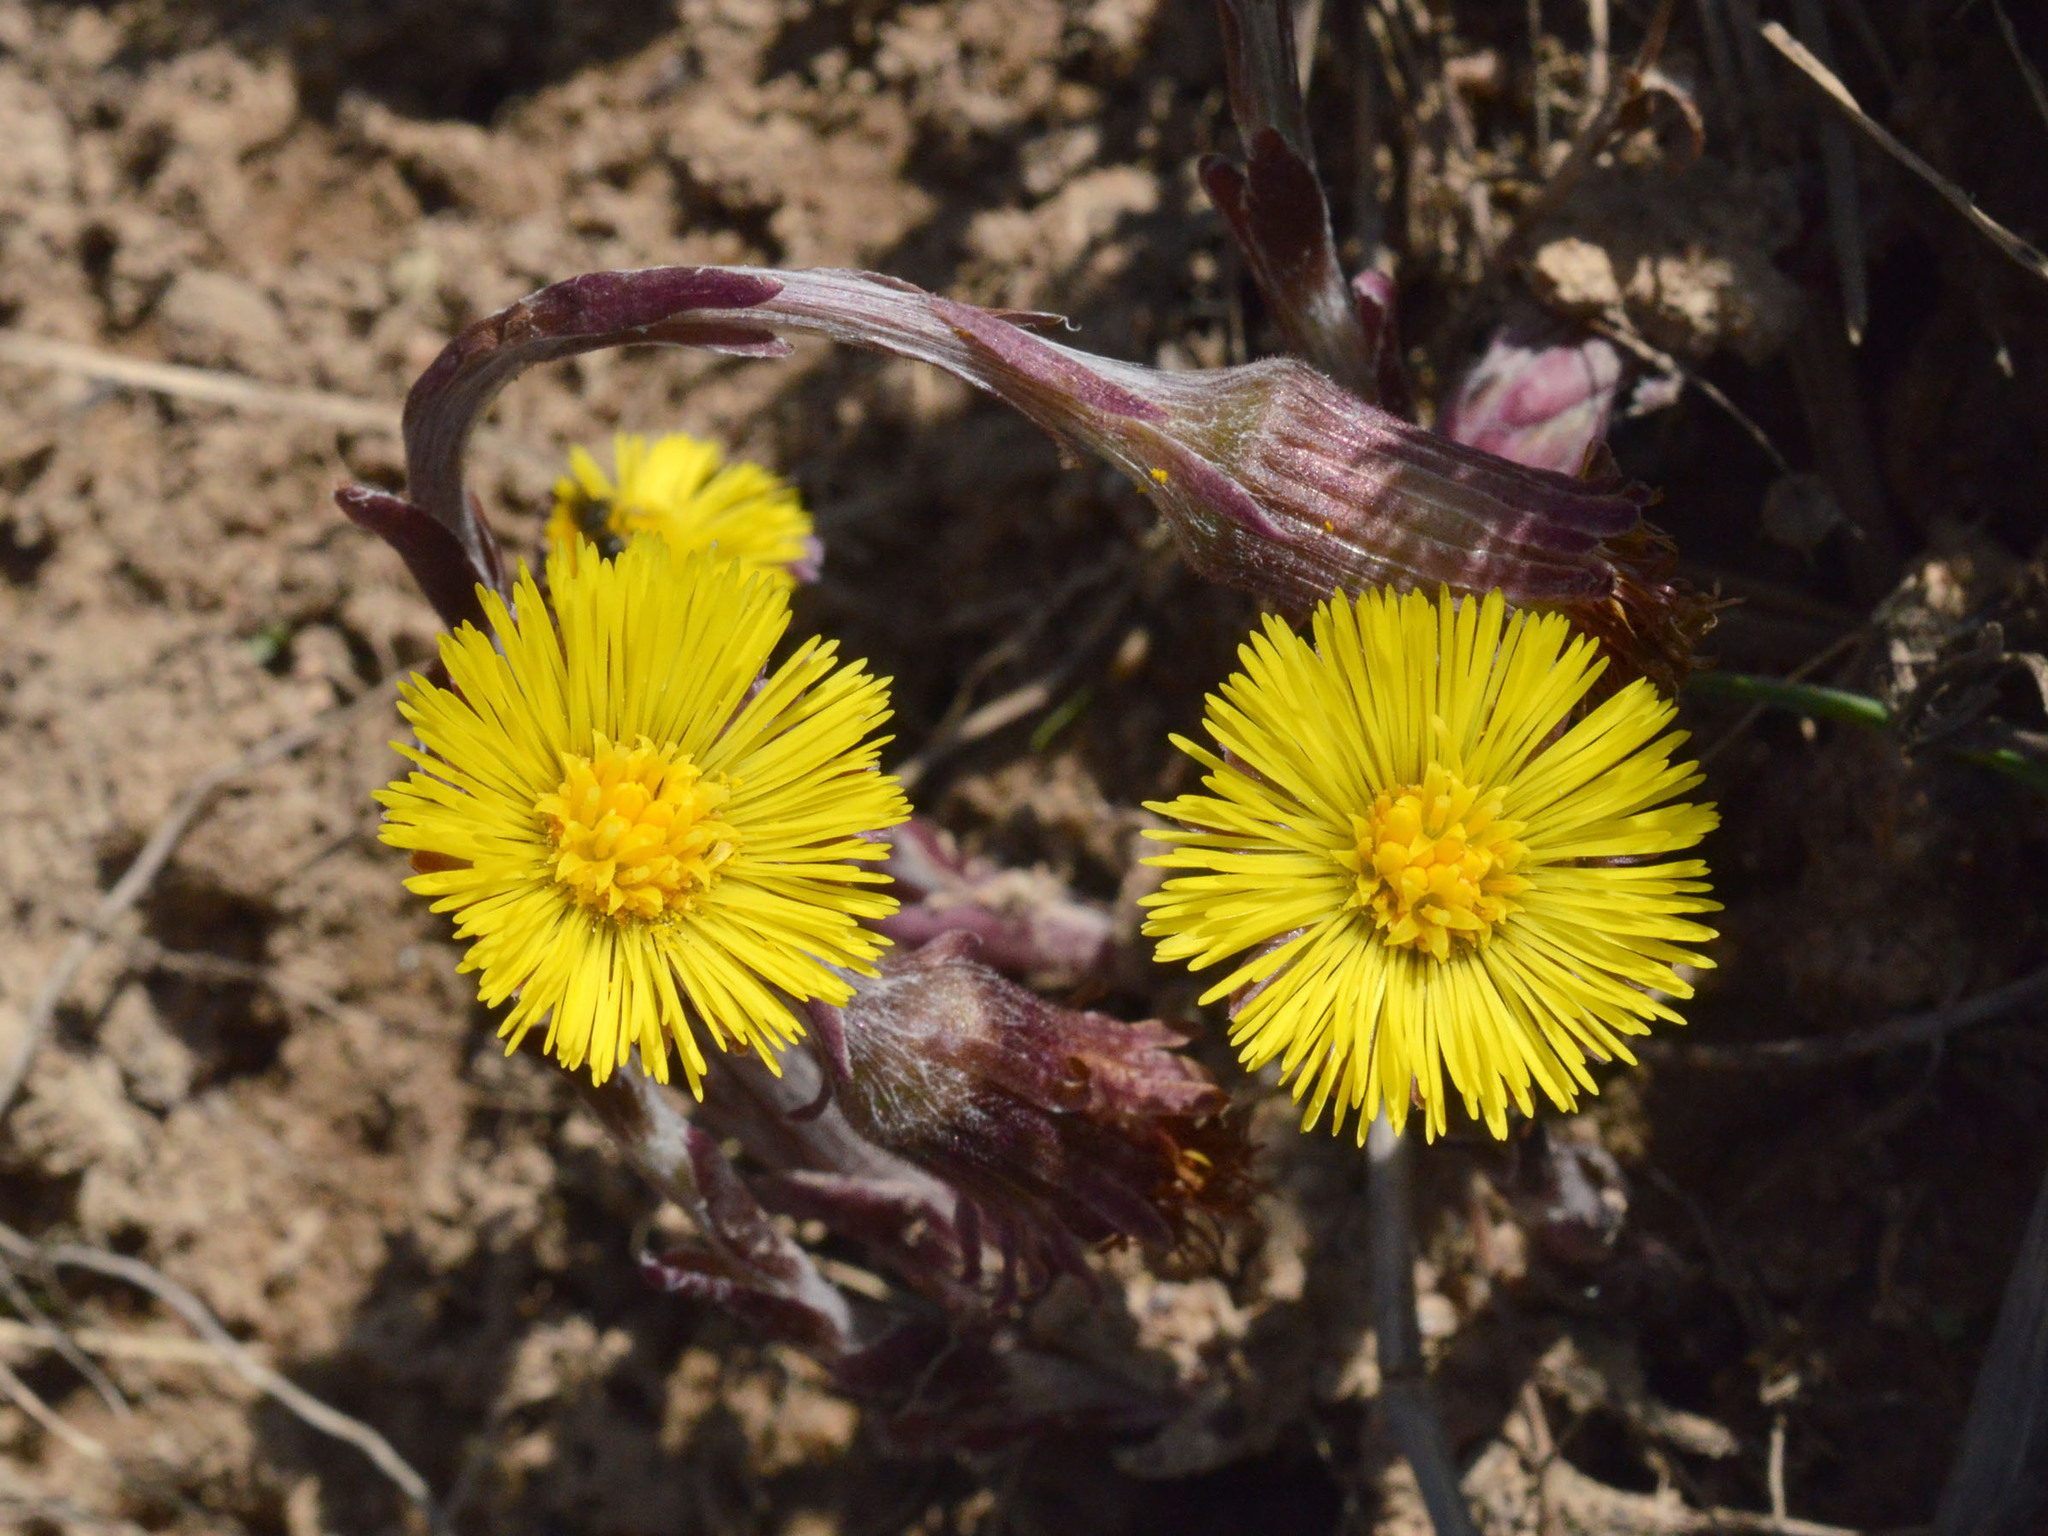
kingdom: Plantae
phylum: Tracheophyta
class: Magnoliopsida
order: Asterales
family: Asteraceae
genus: Tussilago
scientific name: Tussilago farfara
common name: Coltsfoot
